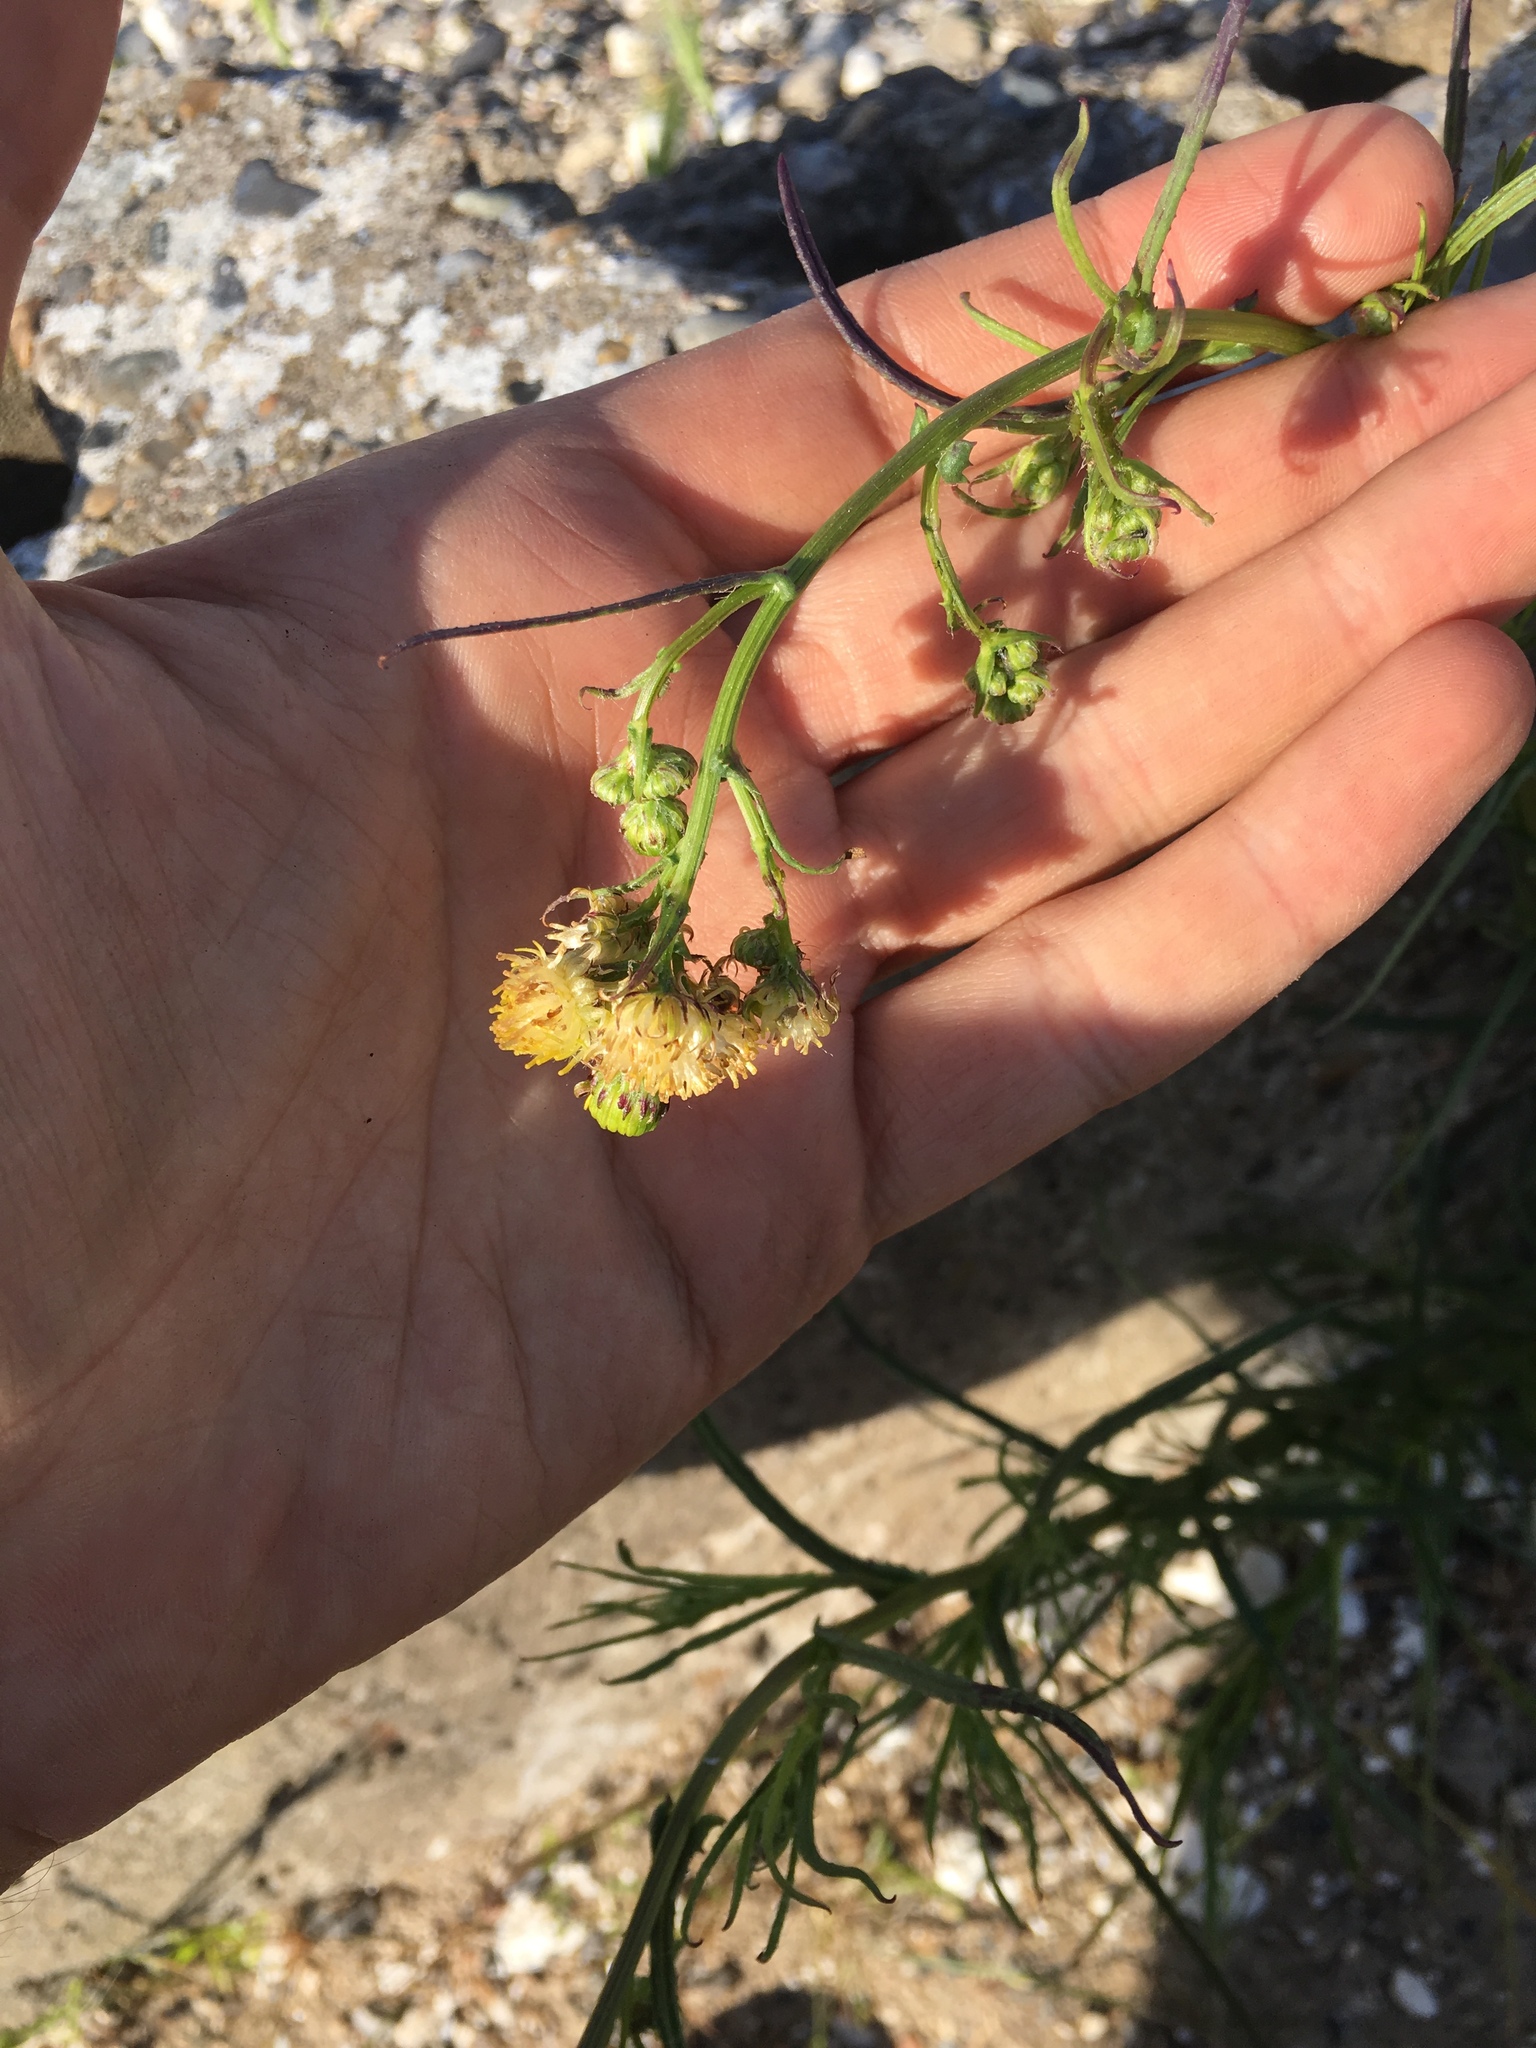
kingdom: Plantae
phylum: Tracheophyta
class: Magnoliopsida
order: Asterales
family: Asteraceae
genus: Senecio
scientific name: Senecio inaequidens
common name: Narrow-leaved ragwort
